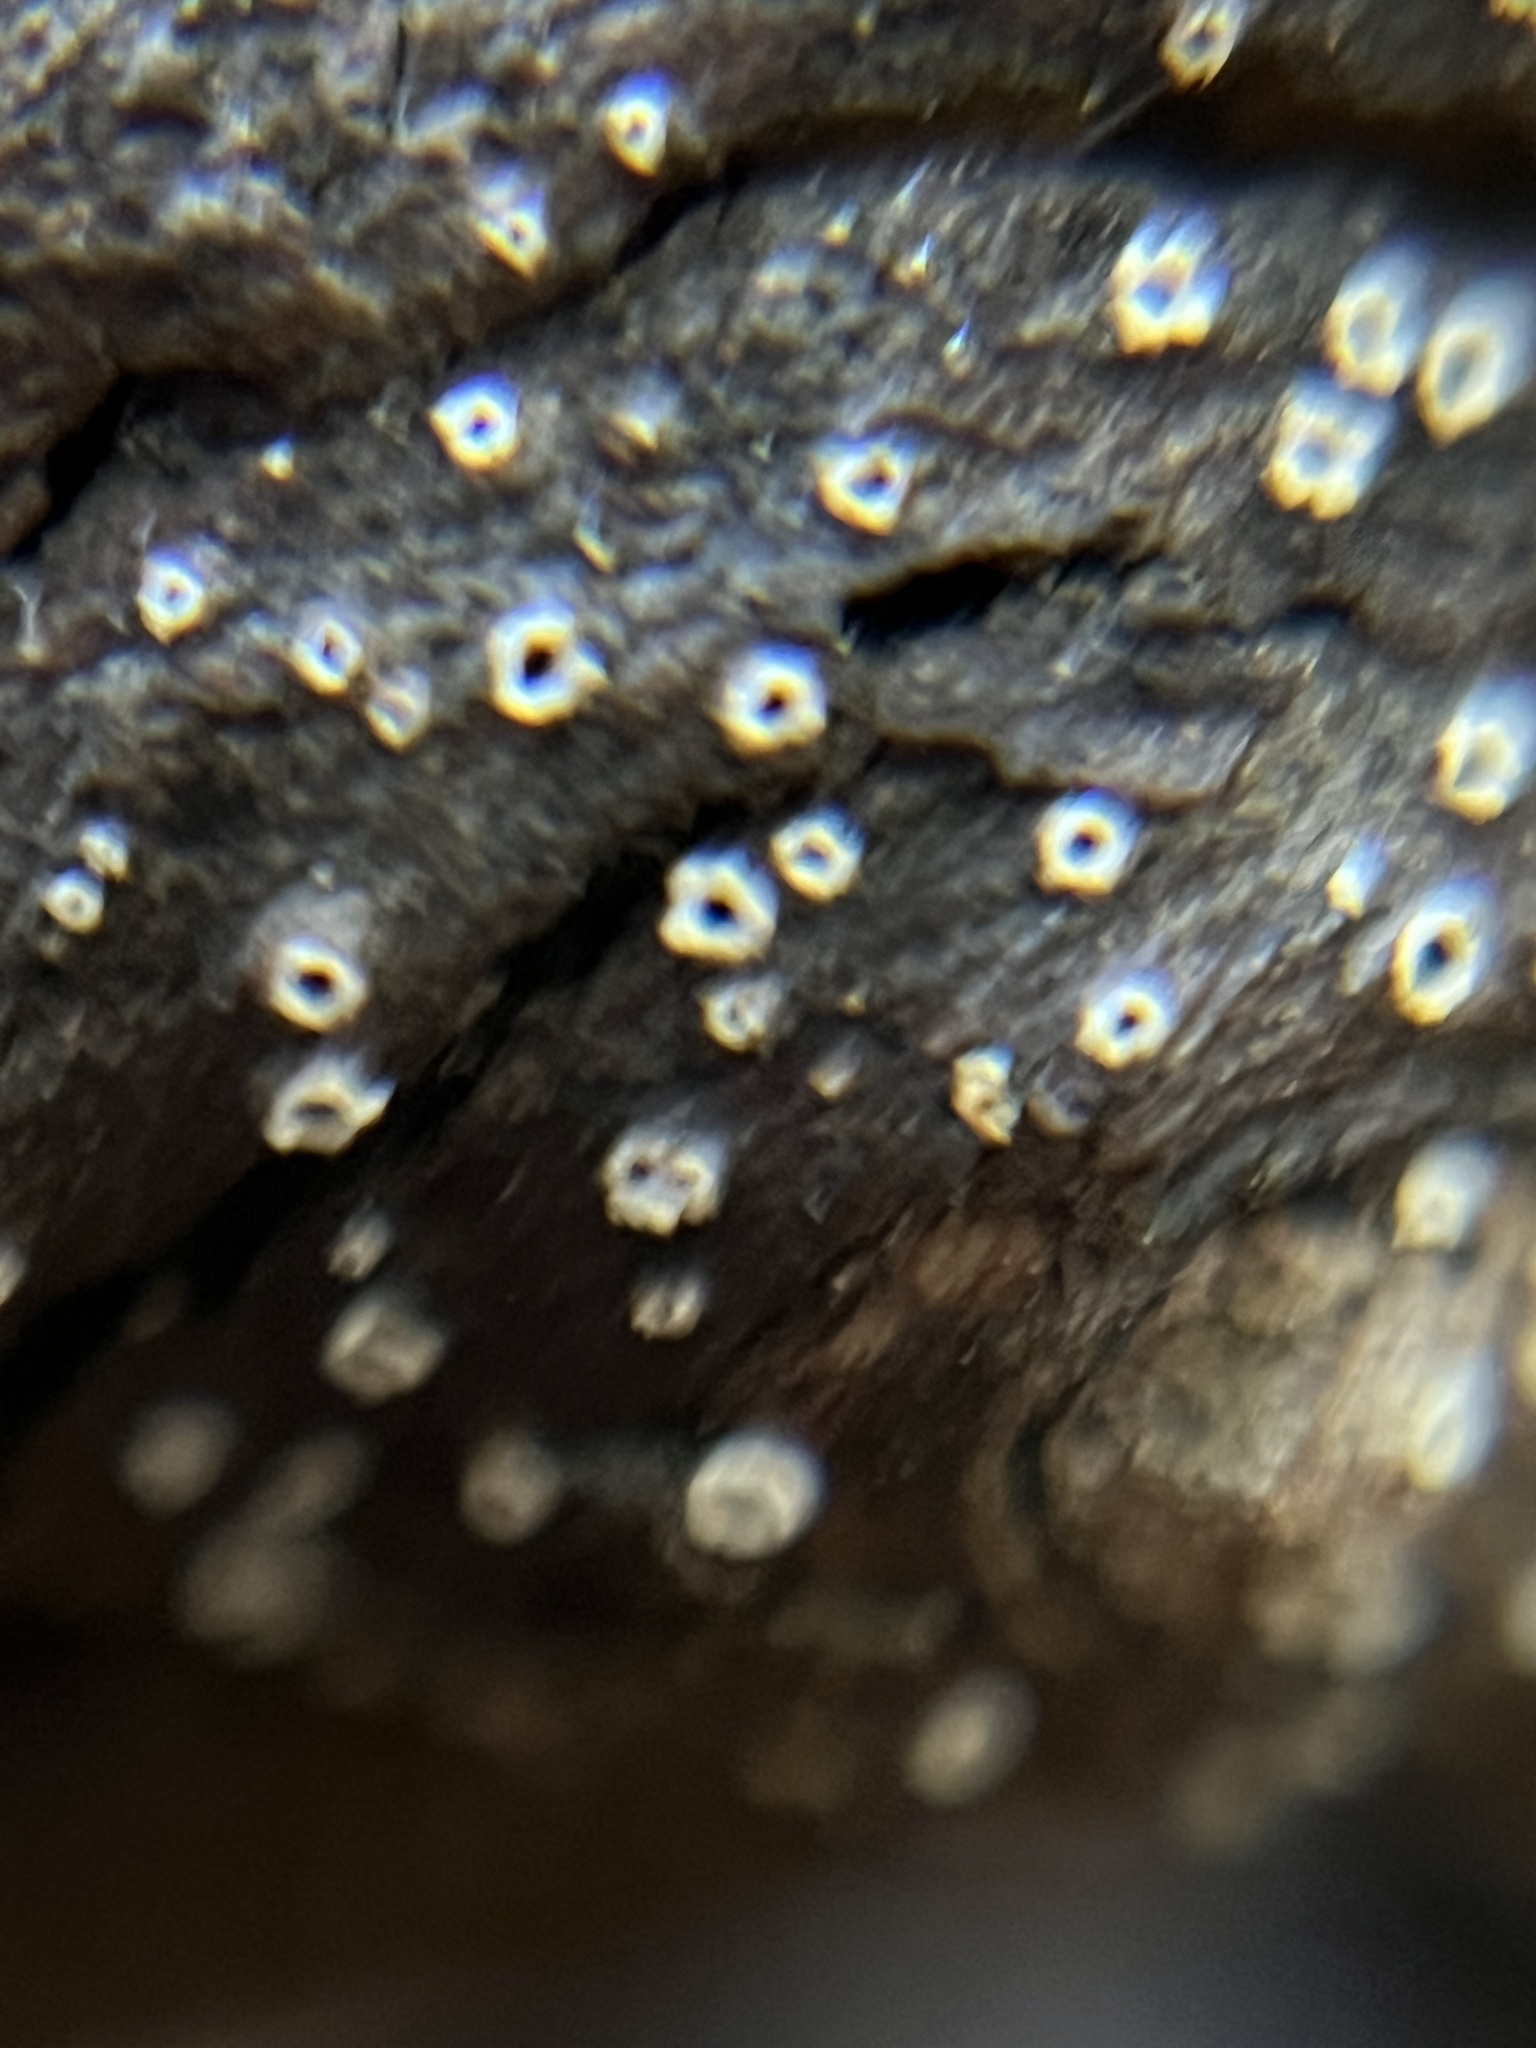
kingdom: Fungi
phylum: Ascomycota
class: Lecanoromycetes
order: Ostropales
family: Stictidaceae
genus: Stictis
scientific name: Stictis radiata
